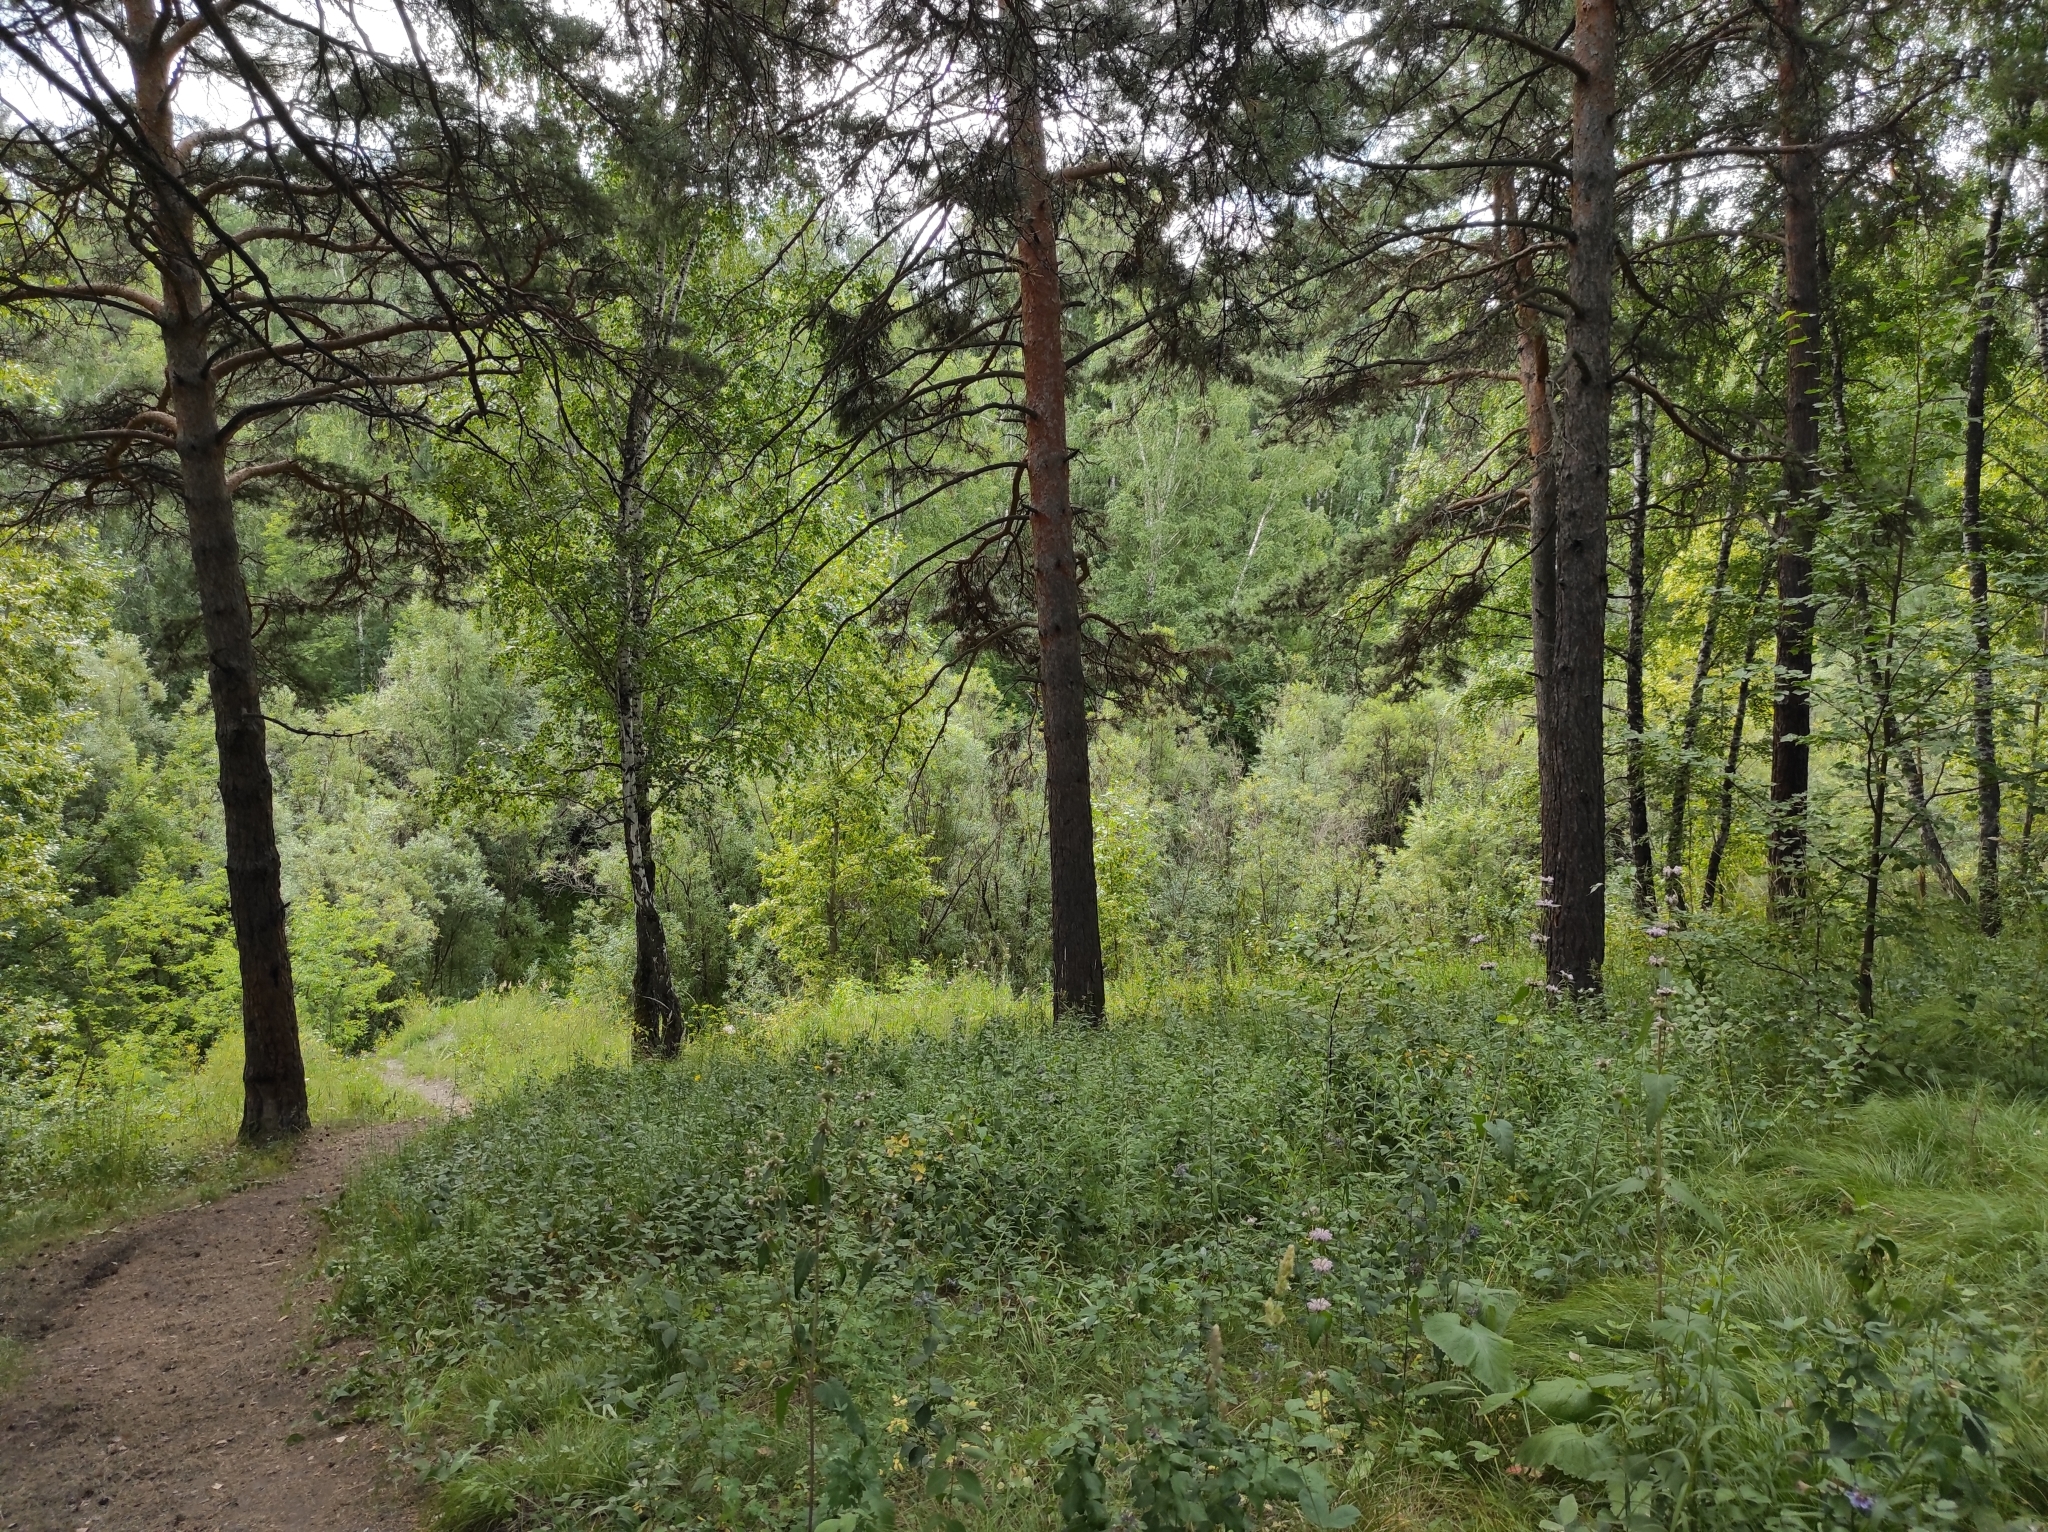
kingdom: Plantae
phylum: Tracheophyta
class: Magnoliopsida
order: Fagales
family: Betulaceae
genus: Betula
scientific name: Betula pendula
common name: Silver birch
